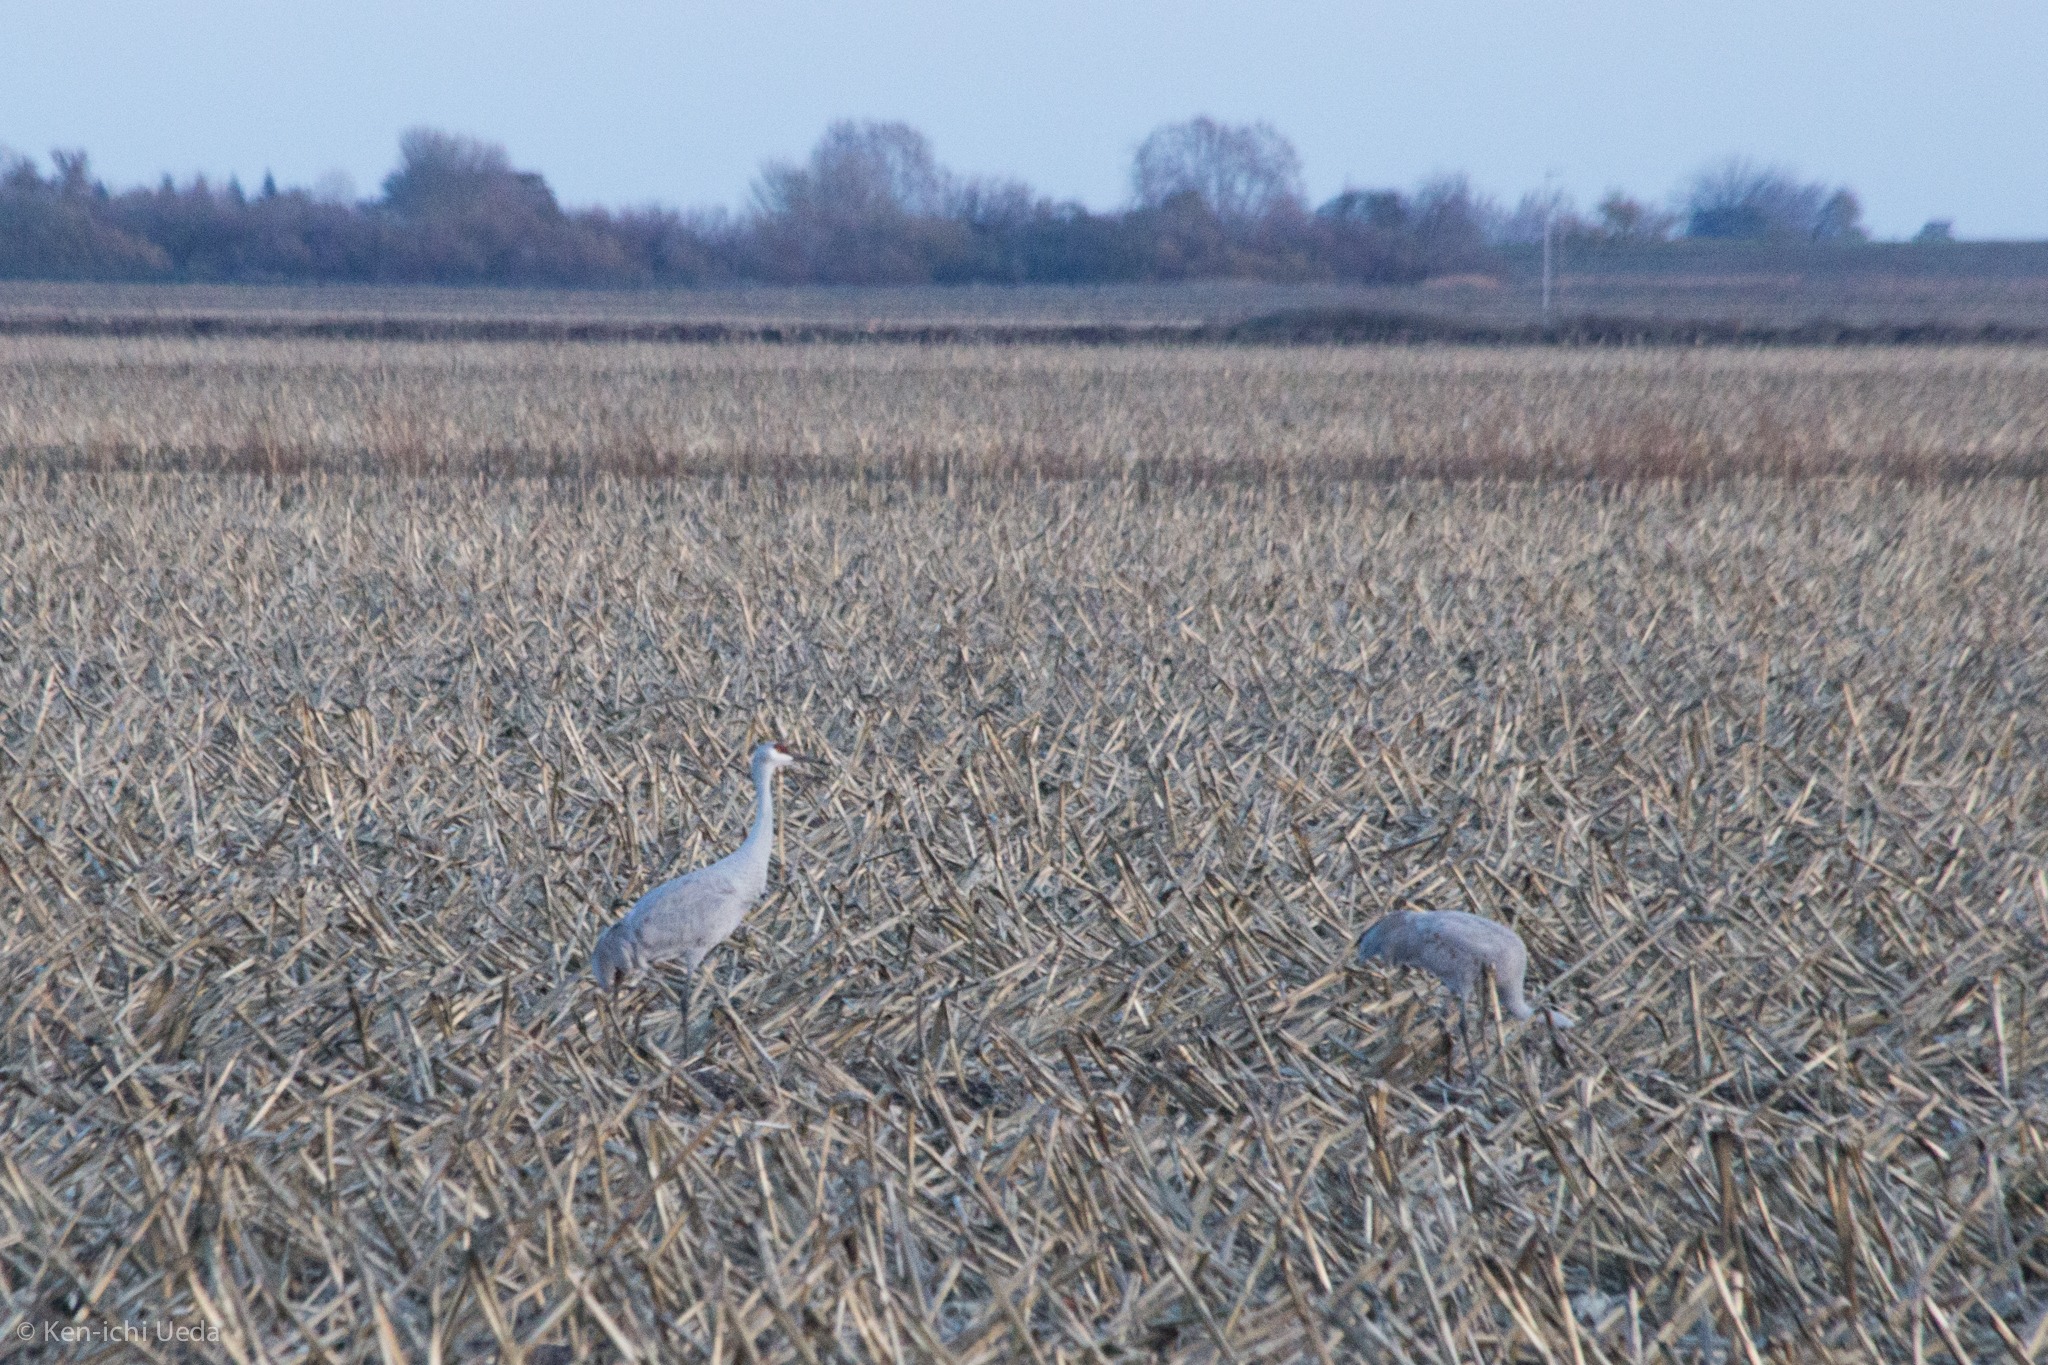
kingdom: Animalia
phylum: Chordata
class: Aves
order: Gruiformes
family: Gruidae
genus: Grus
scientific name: Grus canadensis
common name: Sandhill crane
